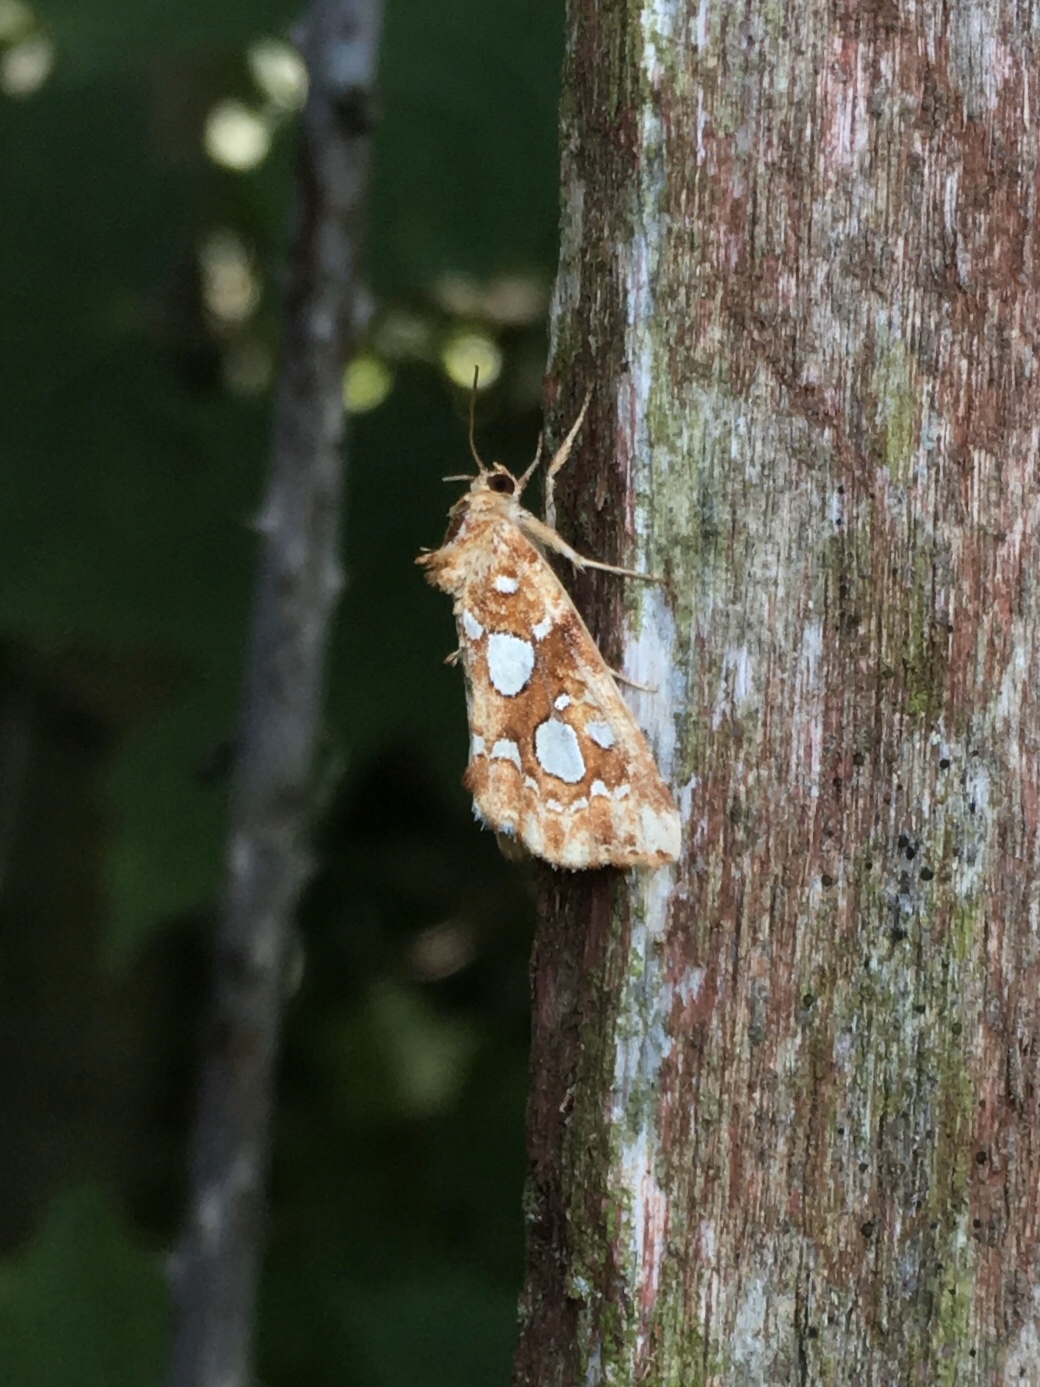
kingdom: Animalia
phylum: Arthropoda
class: Insecta
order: Lepidoptera
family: Noctuidae
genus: Callopistria
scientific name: Callopistria cordata
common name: Silver-spotted fern moth
